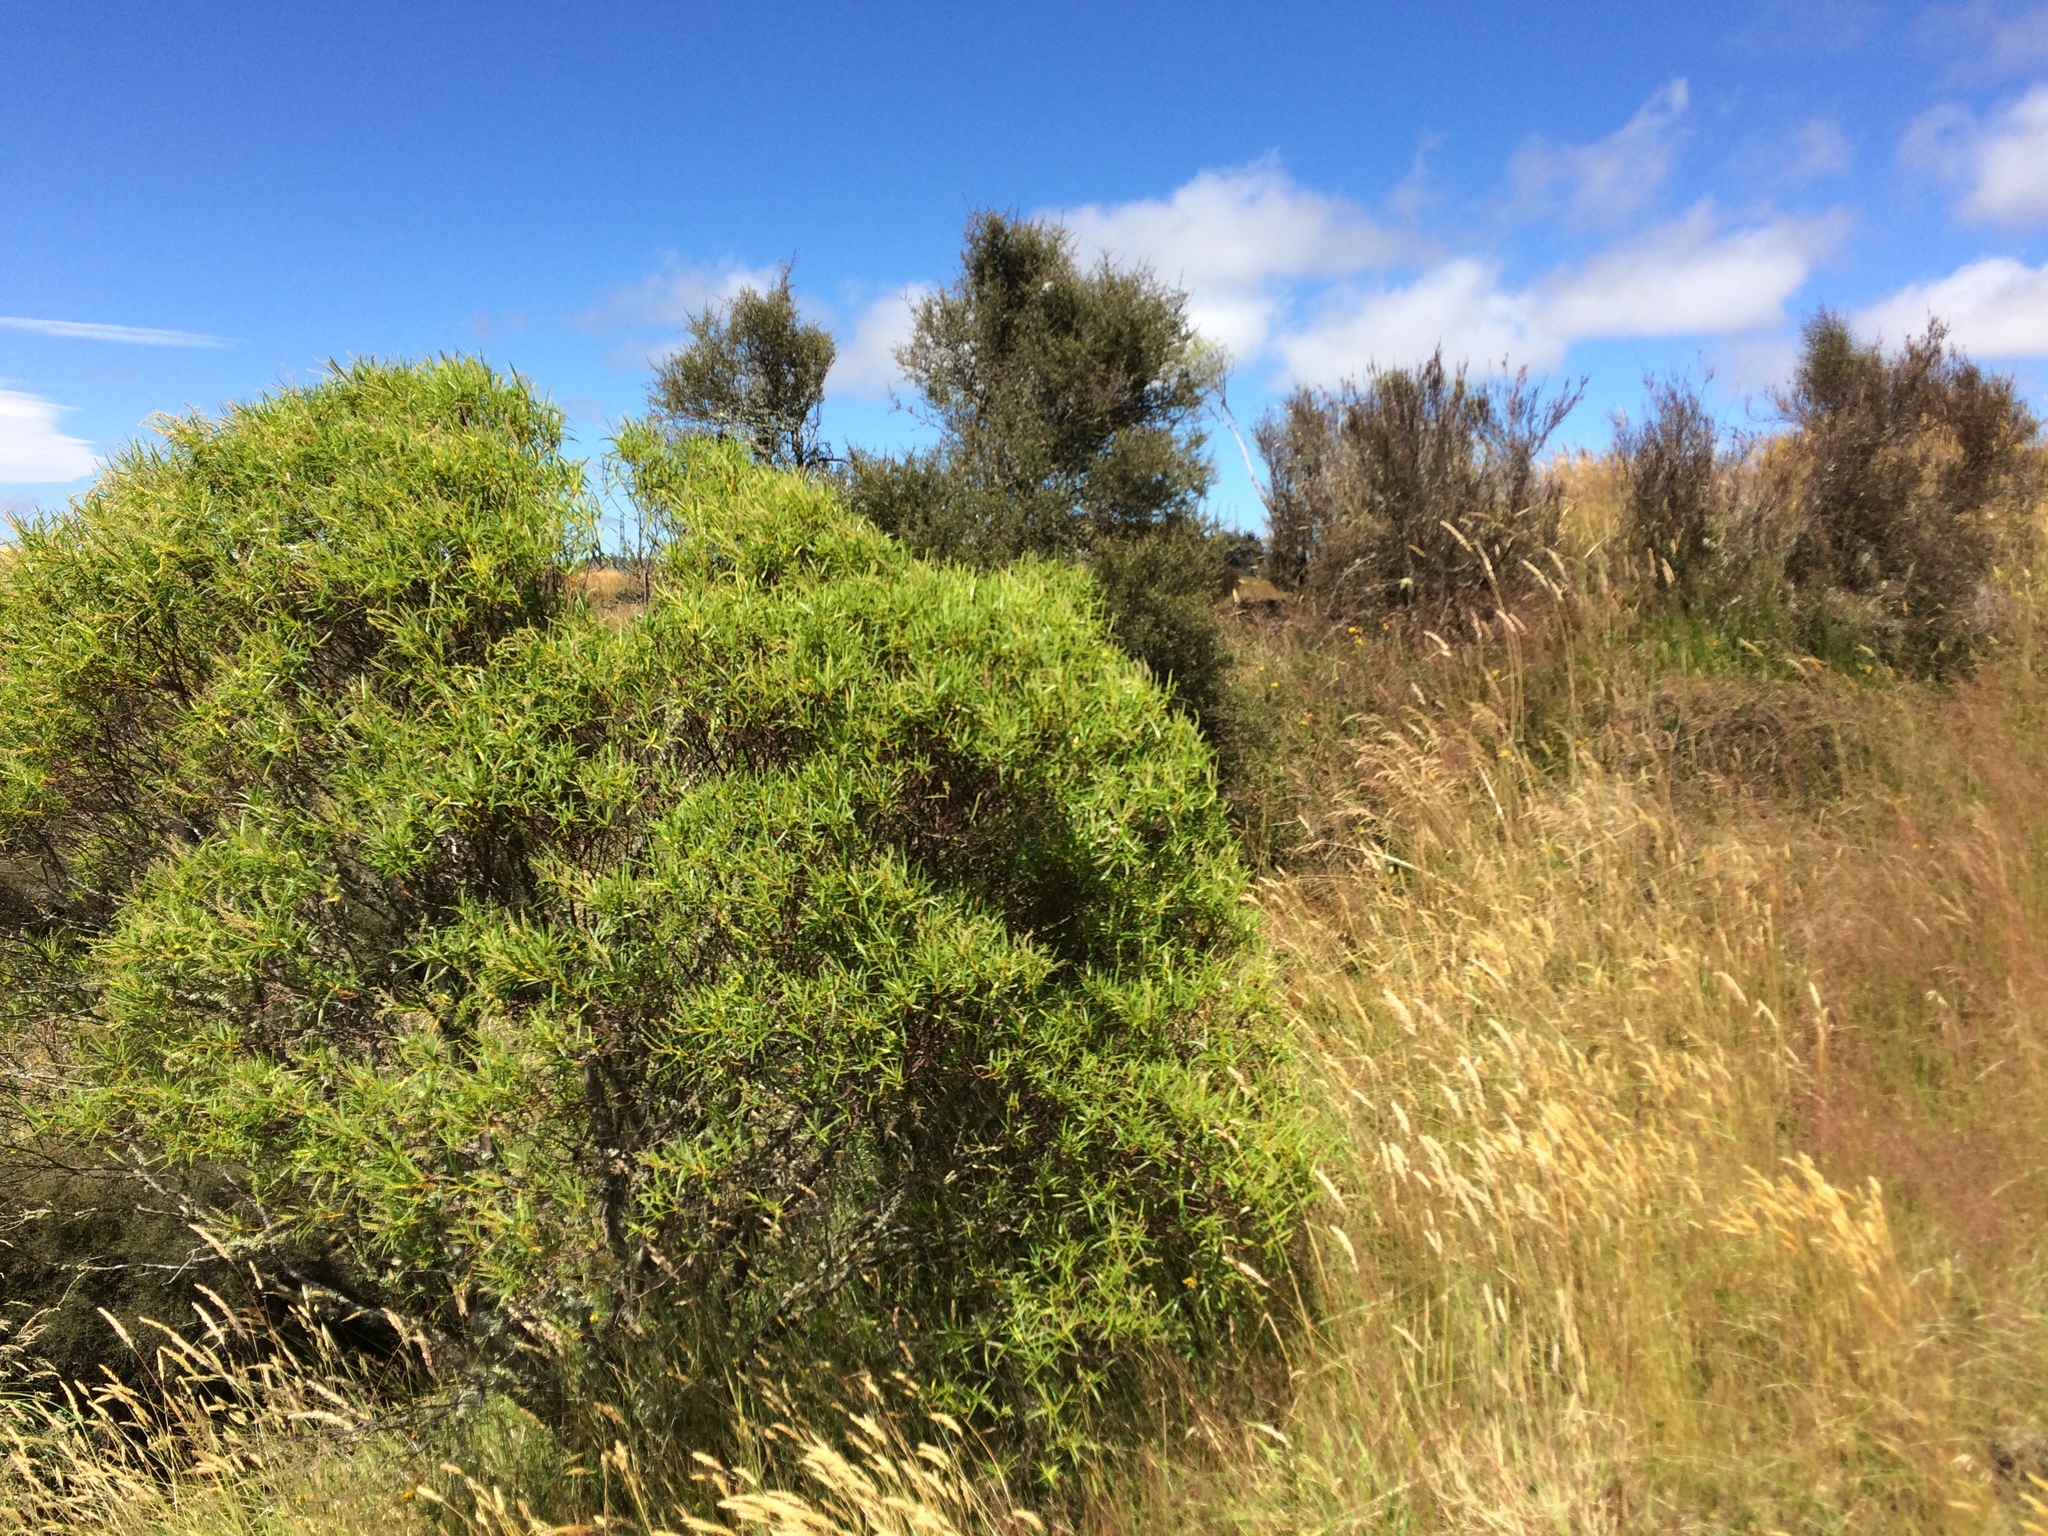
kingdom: Plantae
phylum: Tracheophyta
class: Magnoliopsida
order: Lamiales
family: Plantaginaceae
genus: Veronica
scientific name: Veronica parviflora
